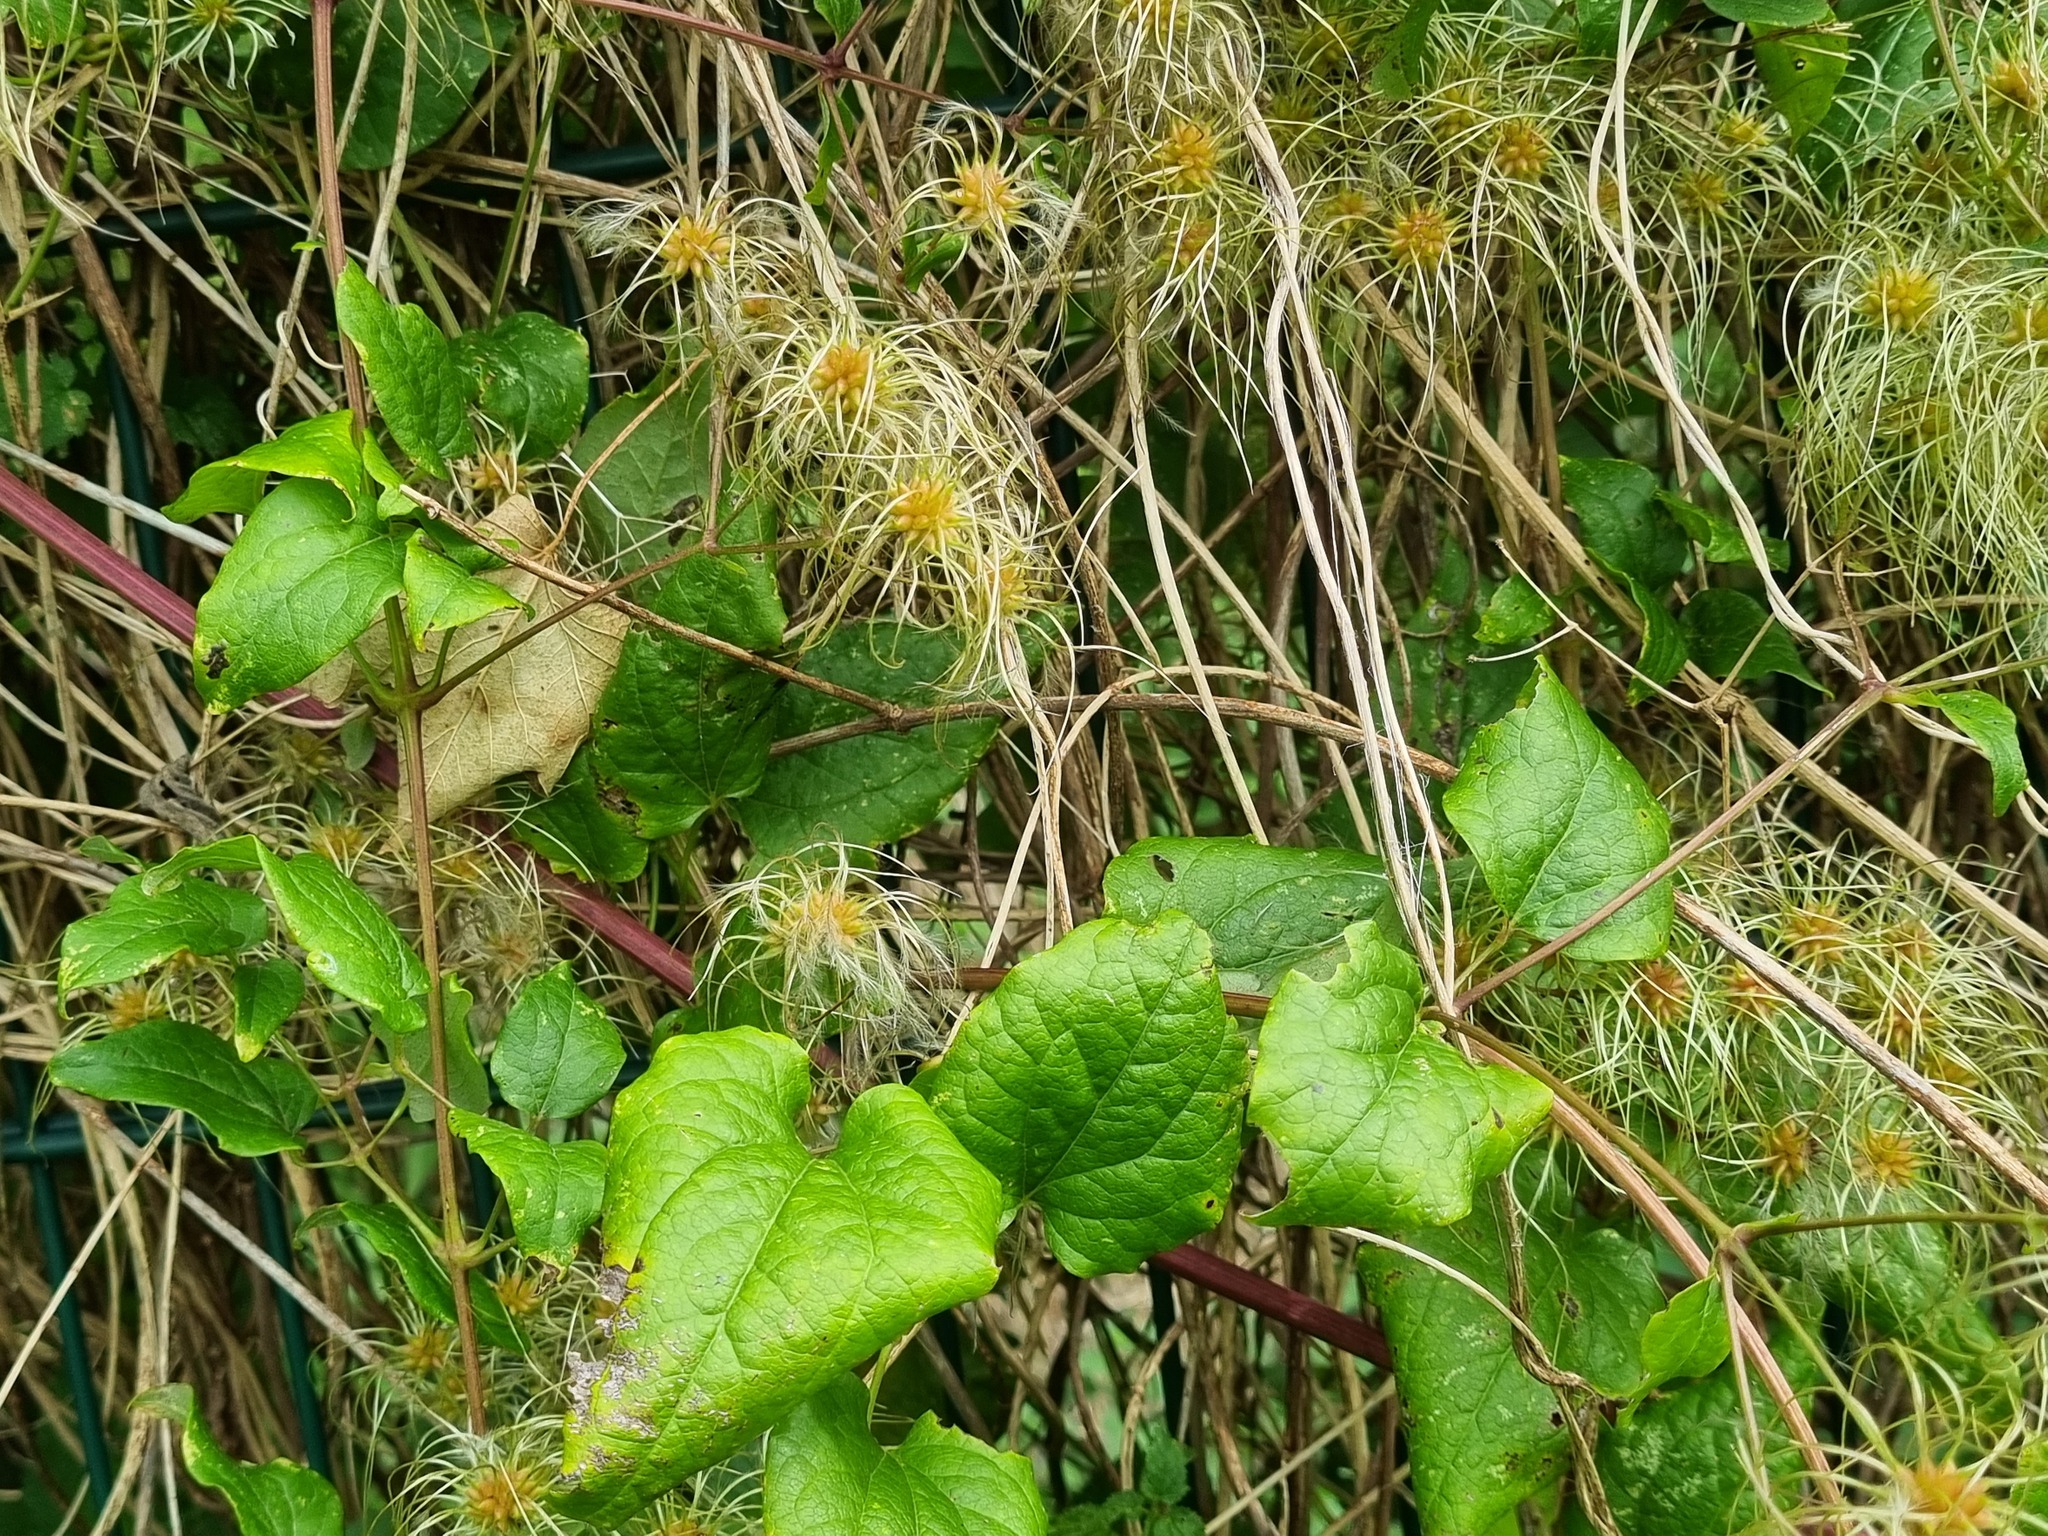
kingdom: Plantae
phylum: Tracheophyta
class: Magnoliopsida
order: Ranunculales
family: Ranunculaceae
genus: Clematis
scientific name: Clematis vitalba
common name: Evergreen clematis
